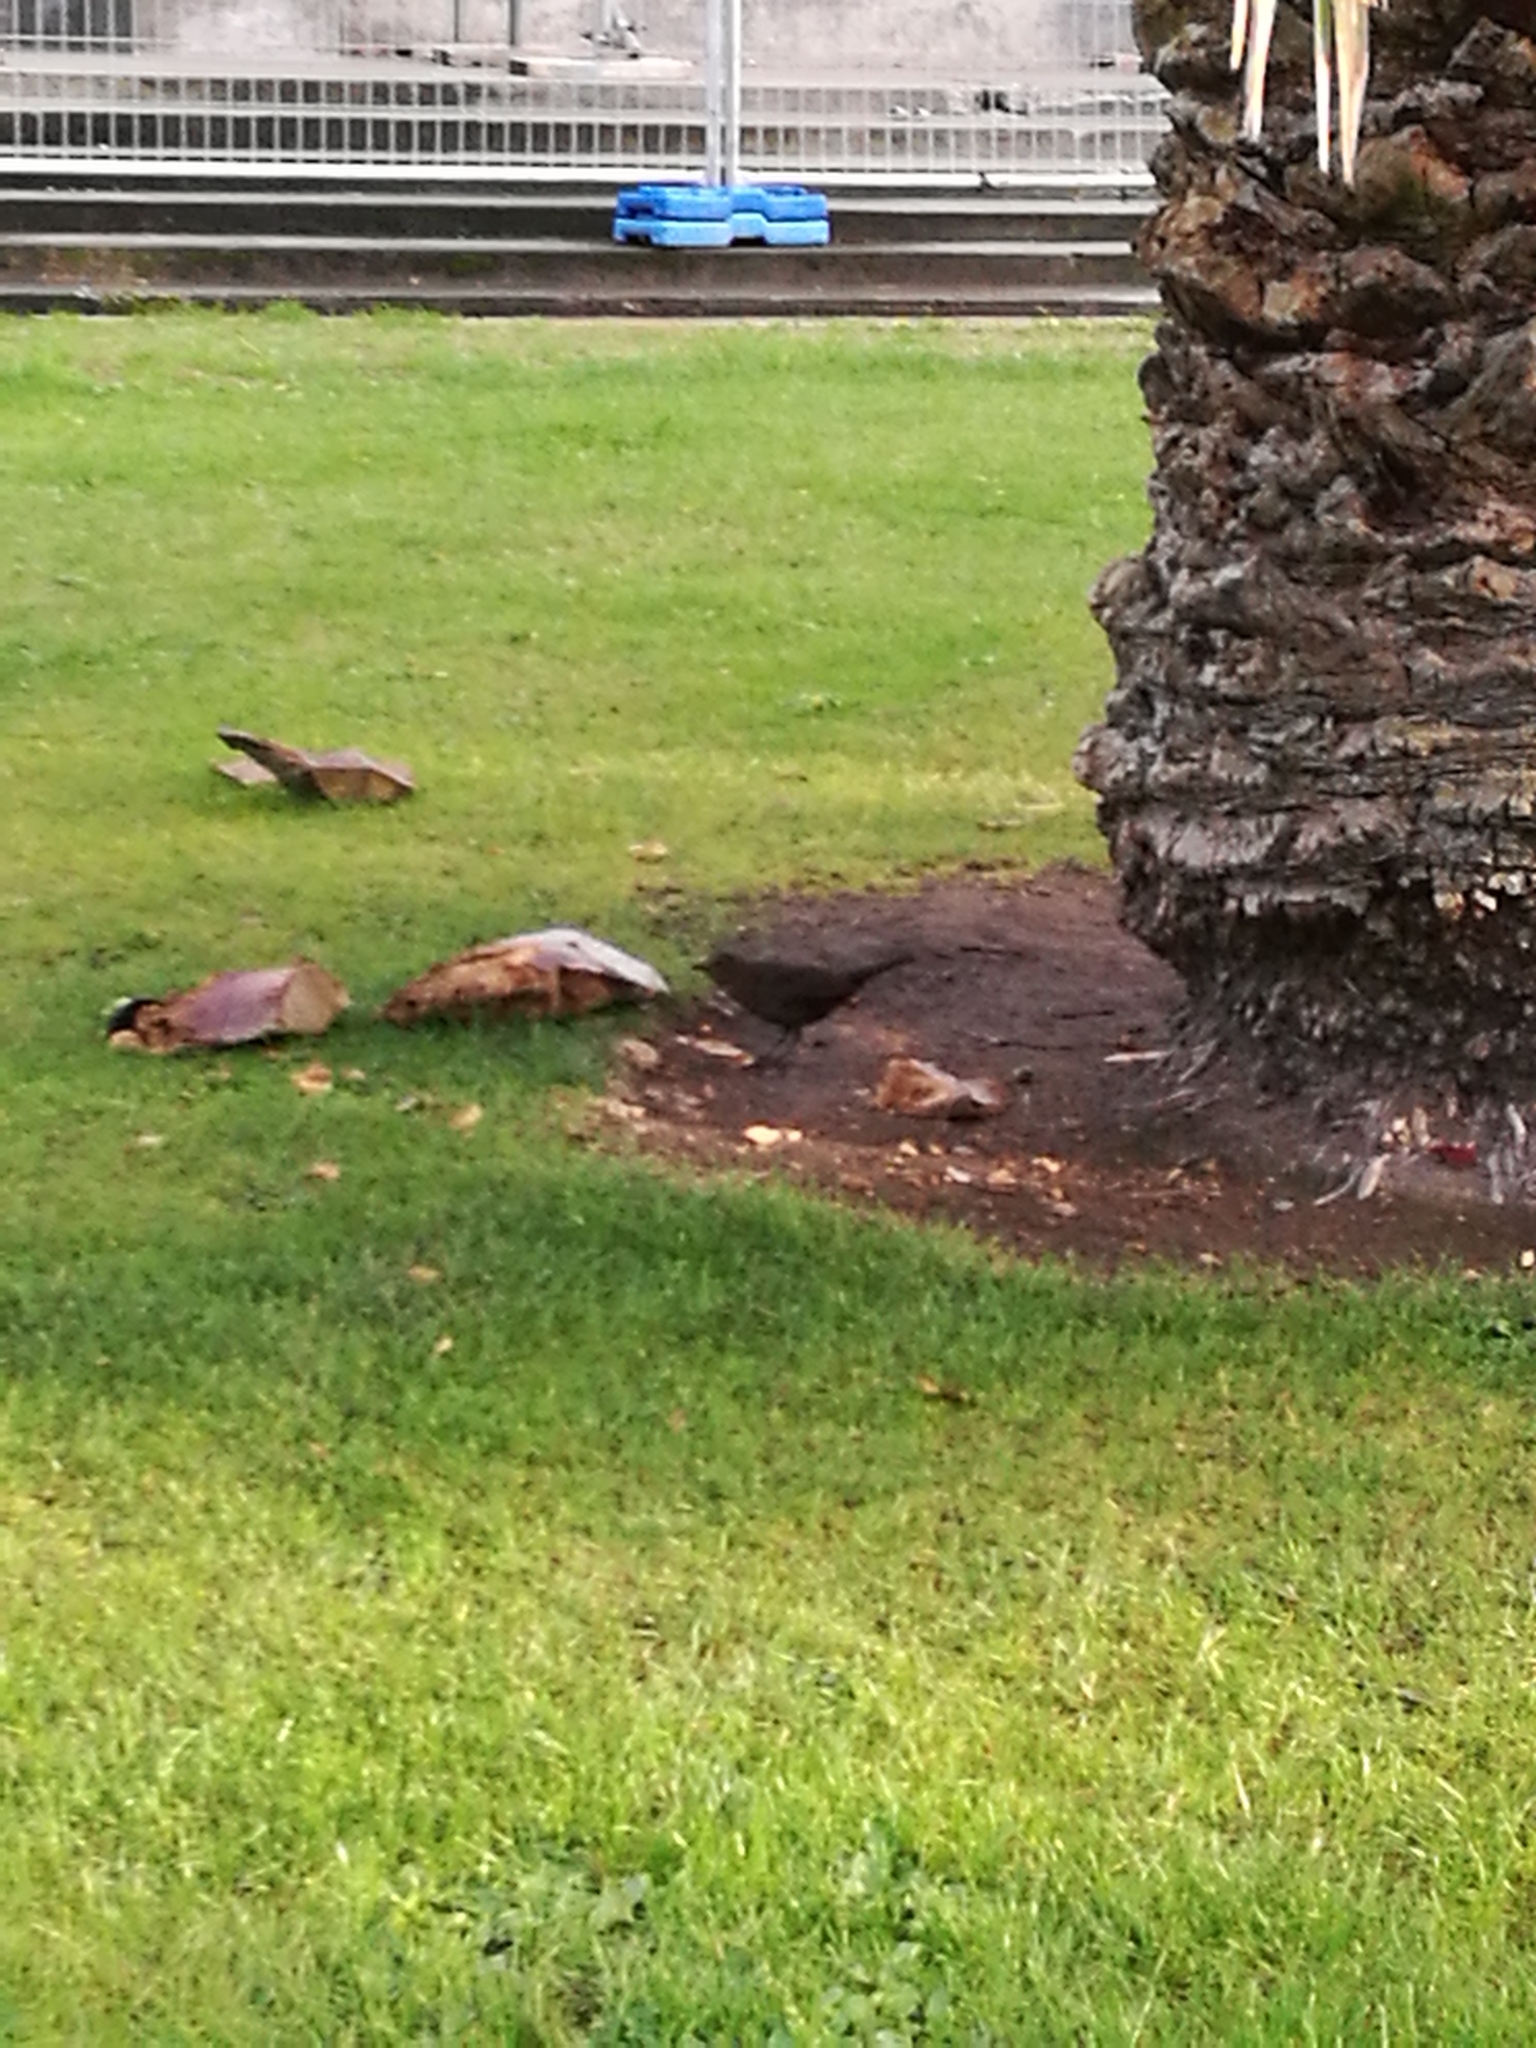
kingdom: Animalia
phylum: Chordata
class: Aves
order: Passeriformes
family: Turdidae
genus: Turdus
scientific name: Turdus merula
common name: Common blackbird
